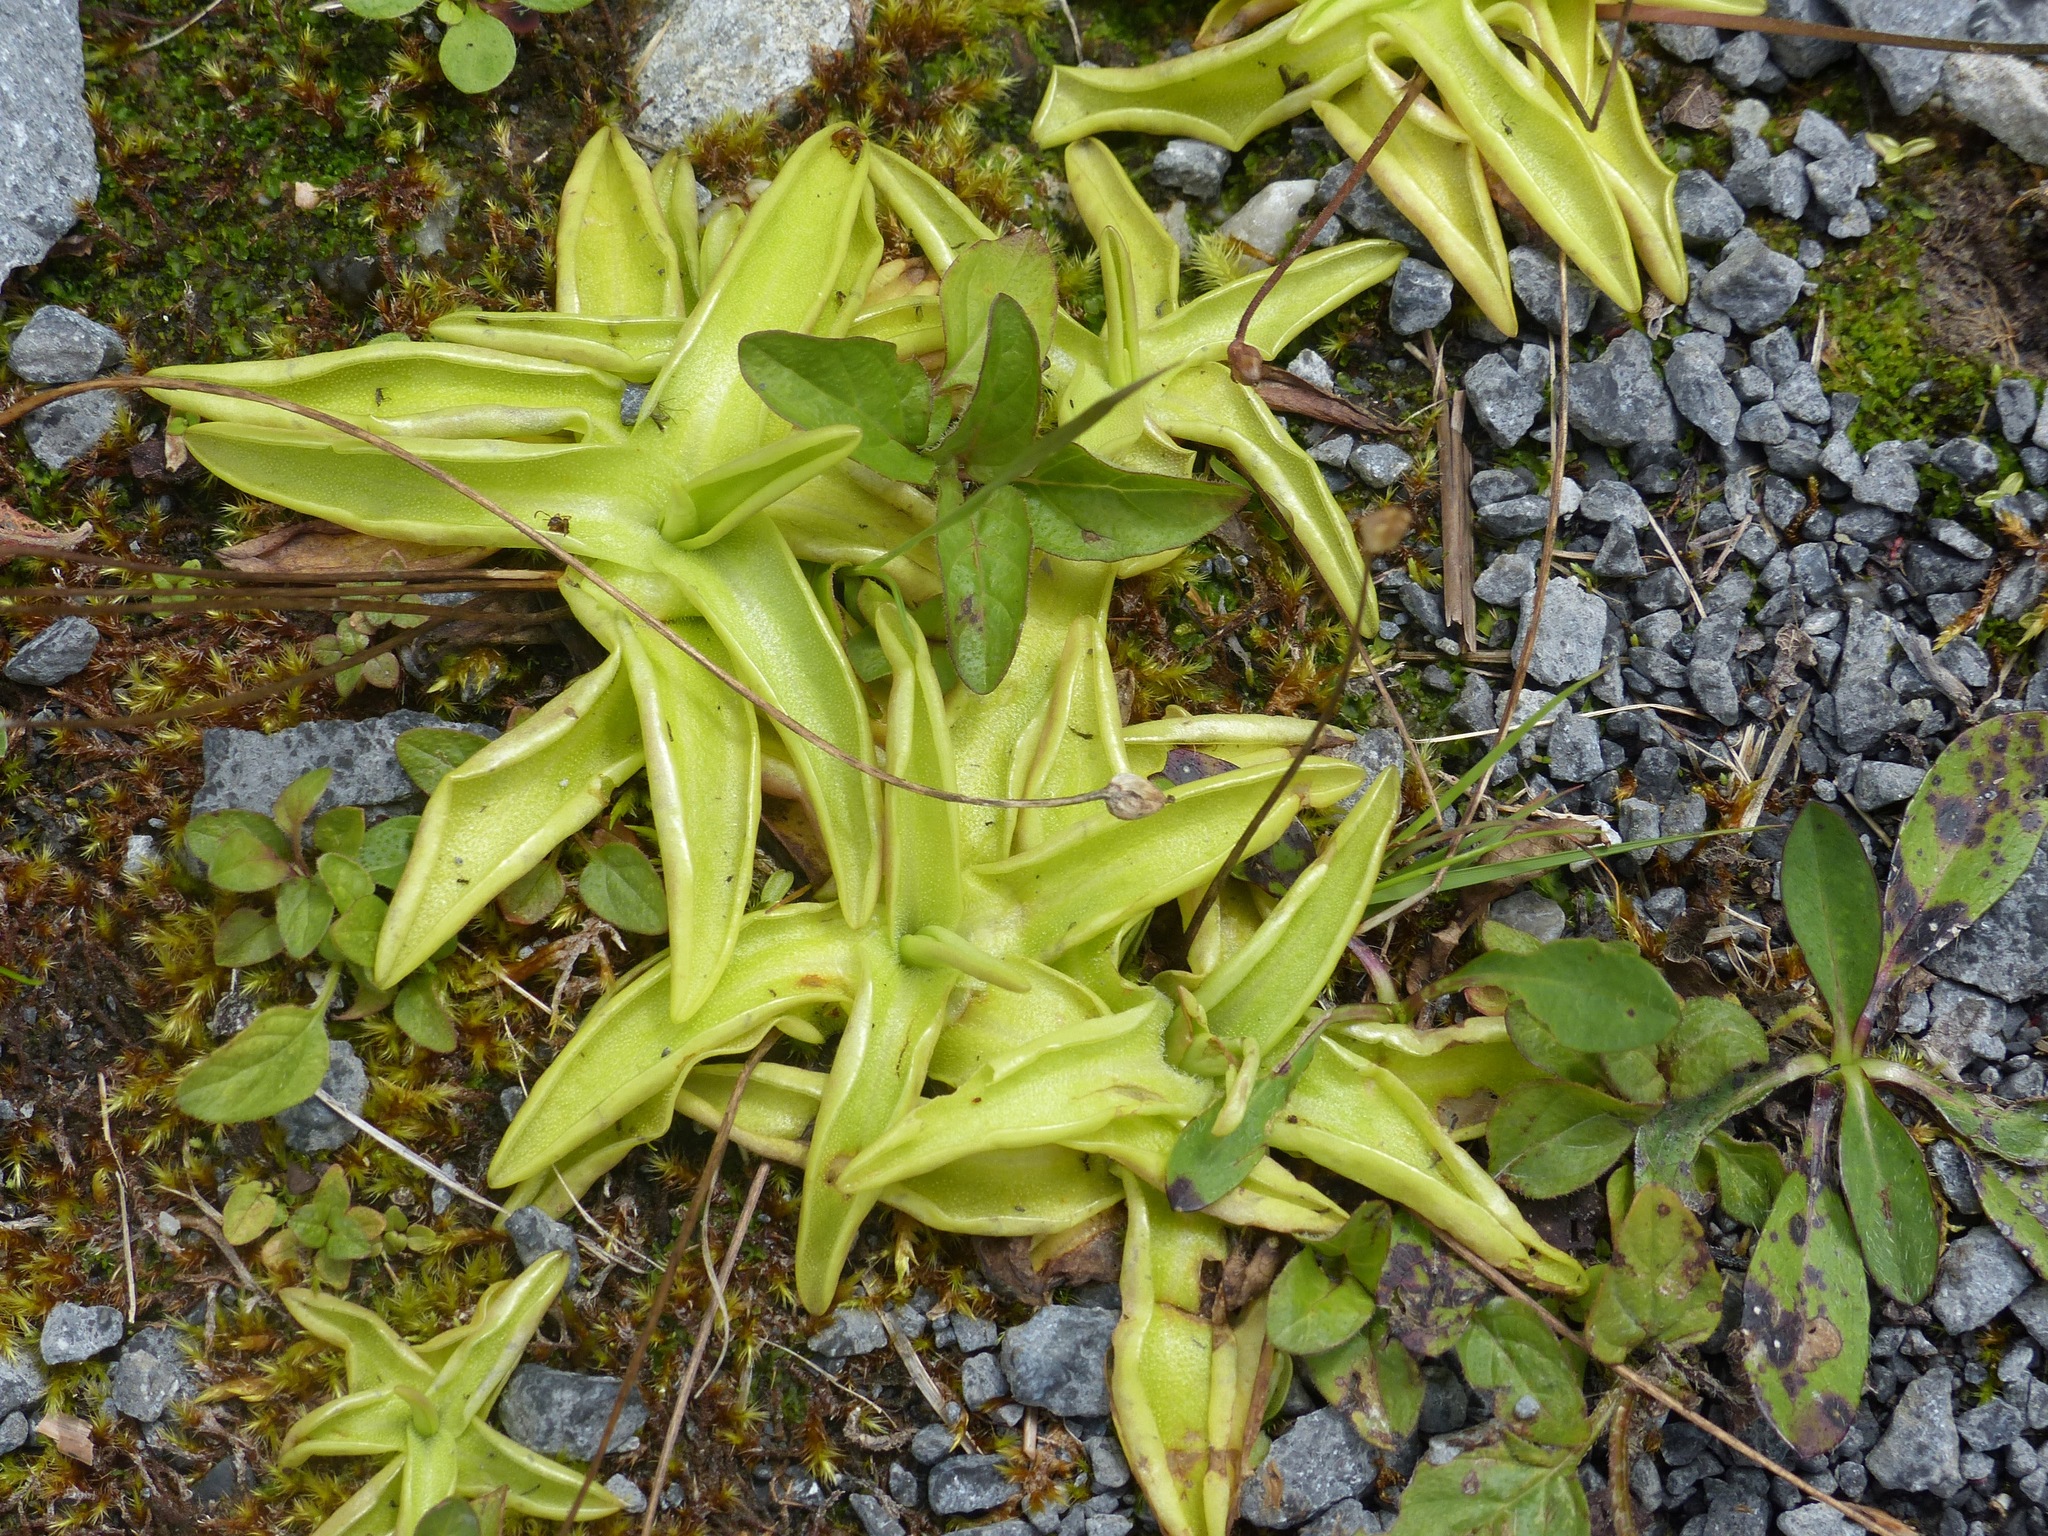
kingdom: Plantae
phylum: Tracheophyta
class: Magnoliopsida
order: Lamiales
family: Lentibulariaceae
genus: Pinguicula
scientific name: Pinguicula vulgaris
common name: Common butterwort
